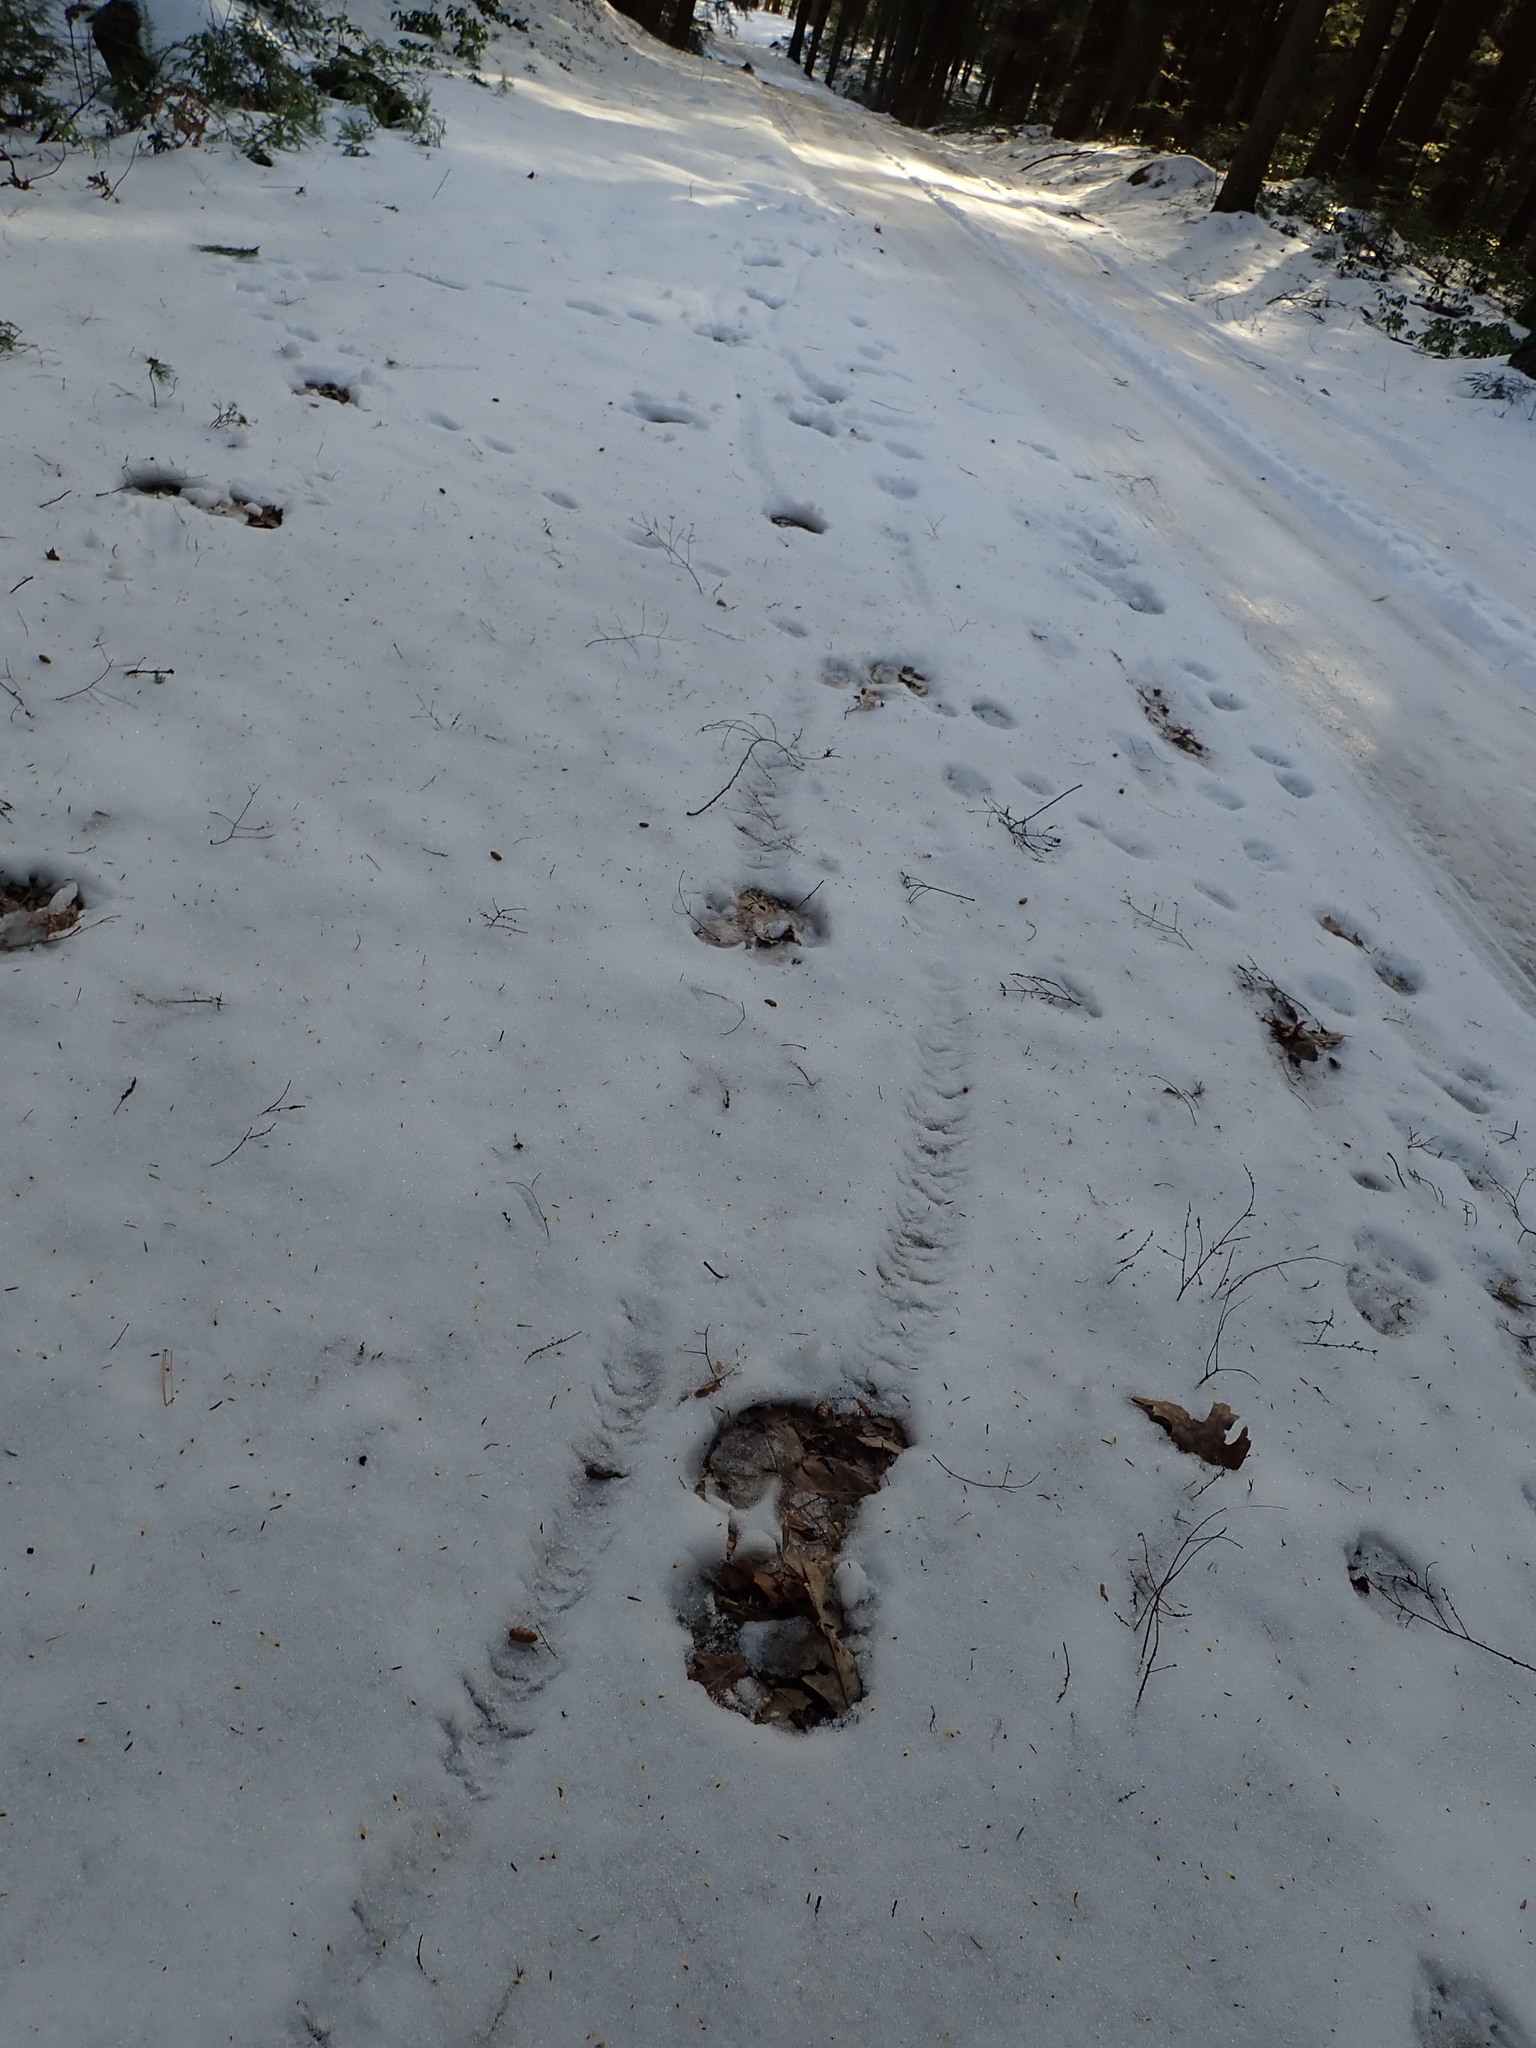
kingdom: Animalia
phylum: Chordata
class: Mammalia
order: Artiodactyla
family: Cervidae
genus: Alces
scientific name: Alces alces
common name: Moose
